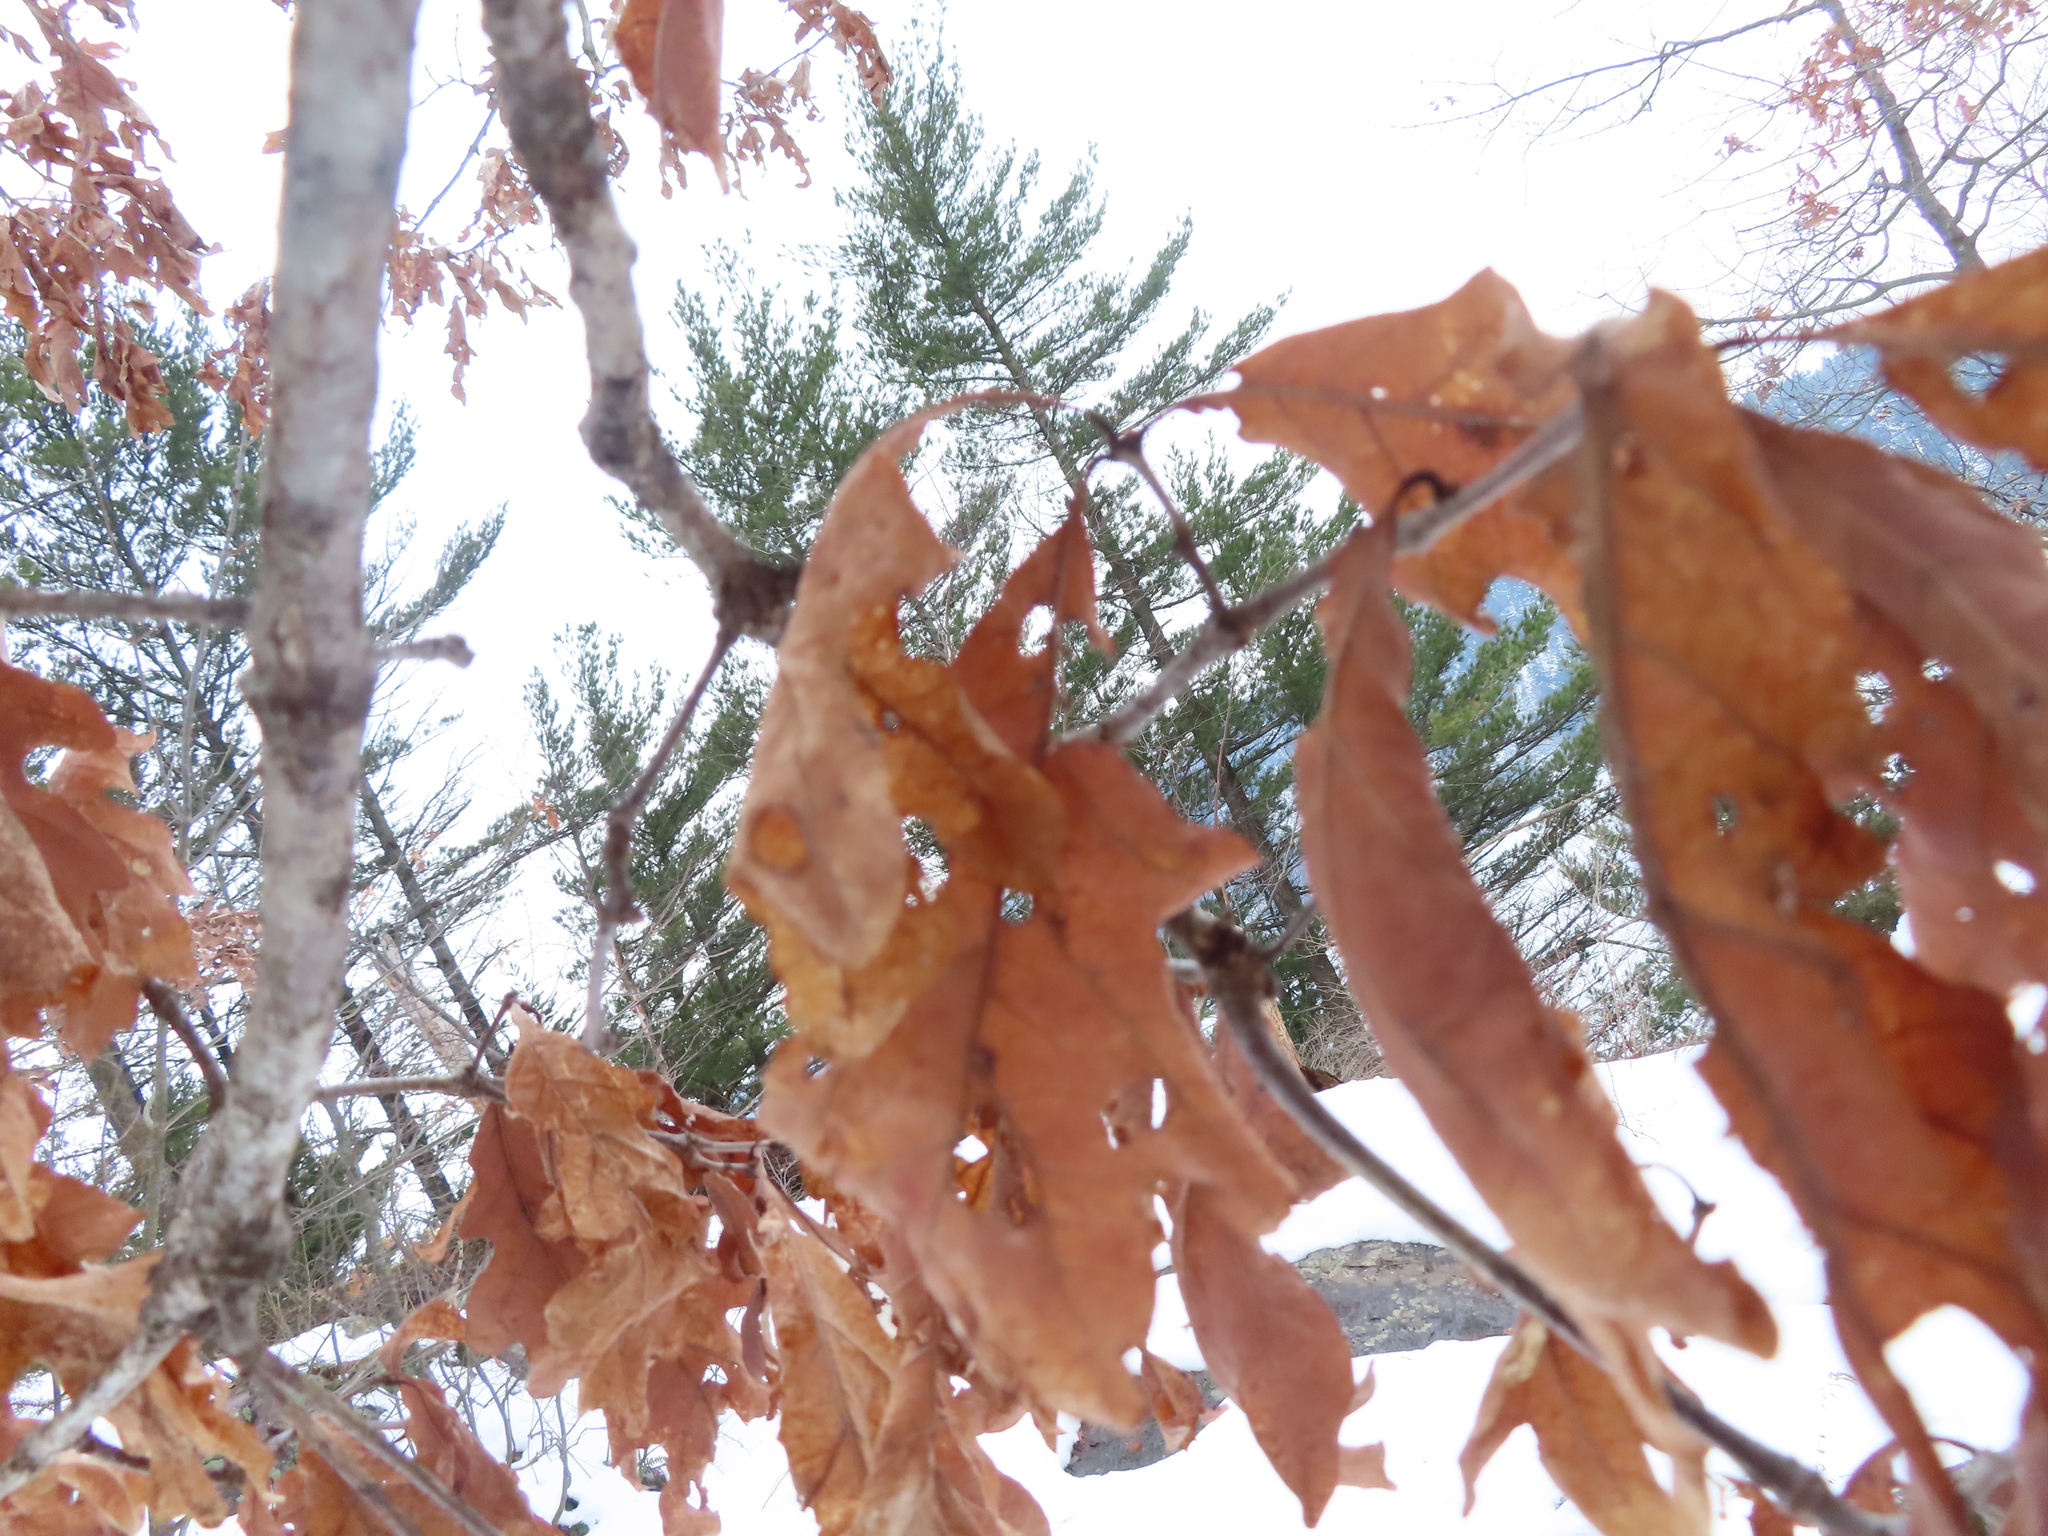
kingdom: Plantae
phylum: Tracheophyta
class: Magnoliopsida
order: Fagales
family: Fagaceae
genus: Quercus
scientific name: Quercus alba
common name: White oak
